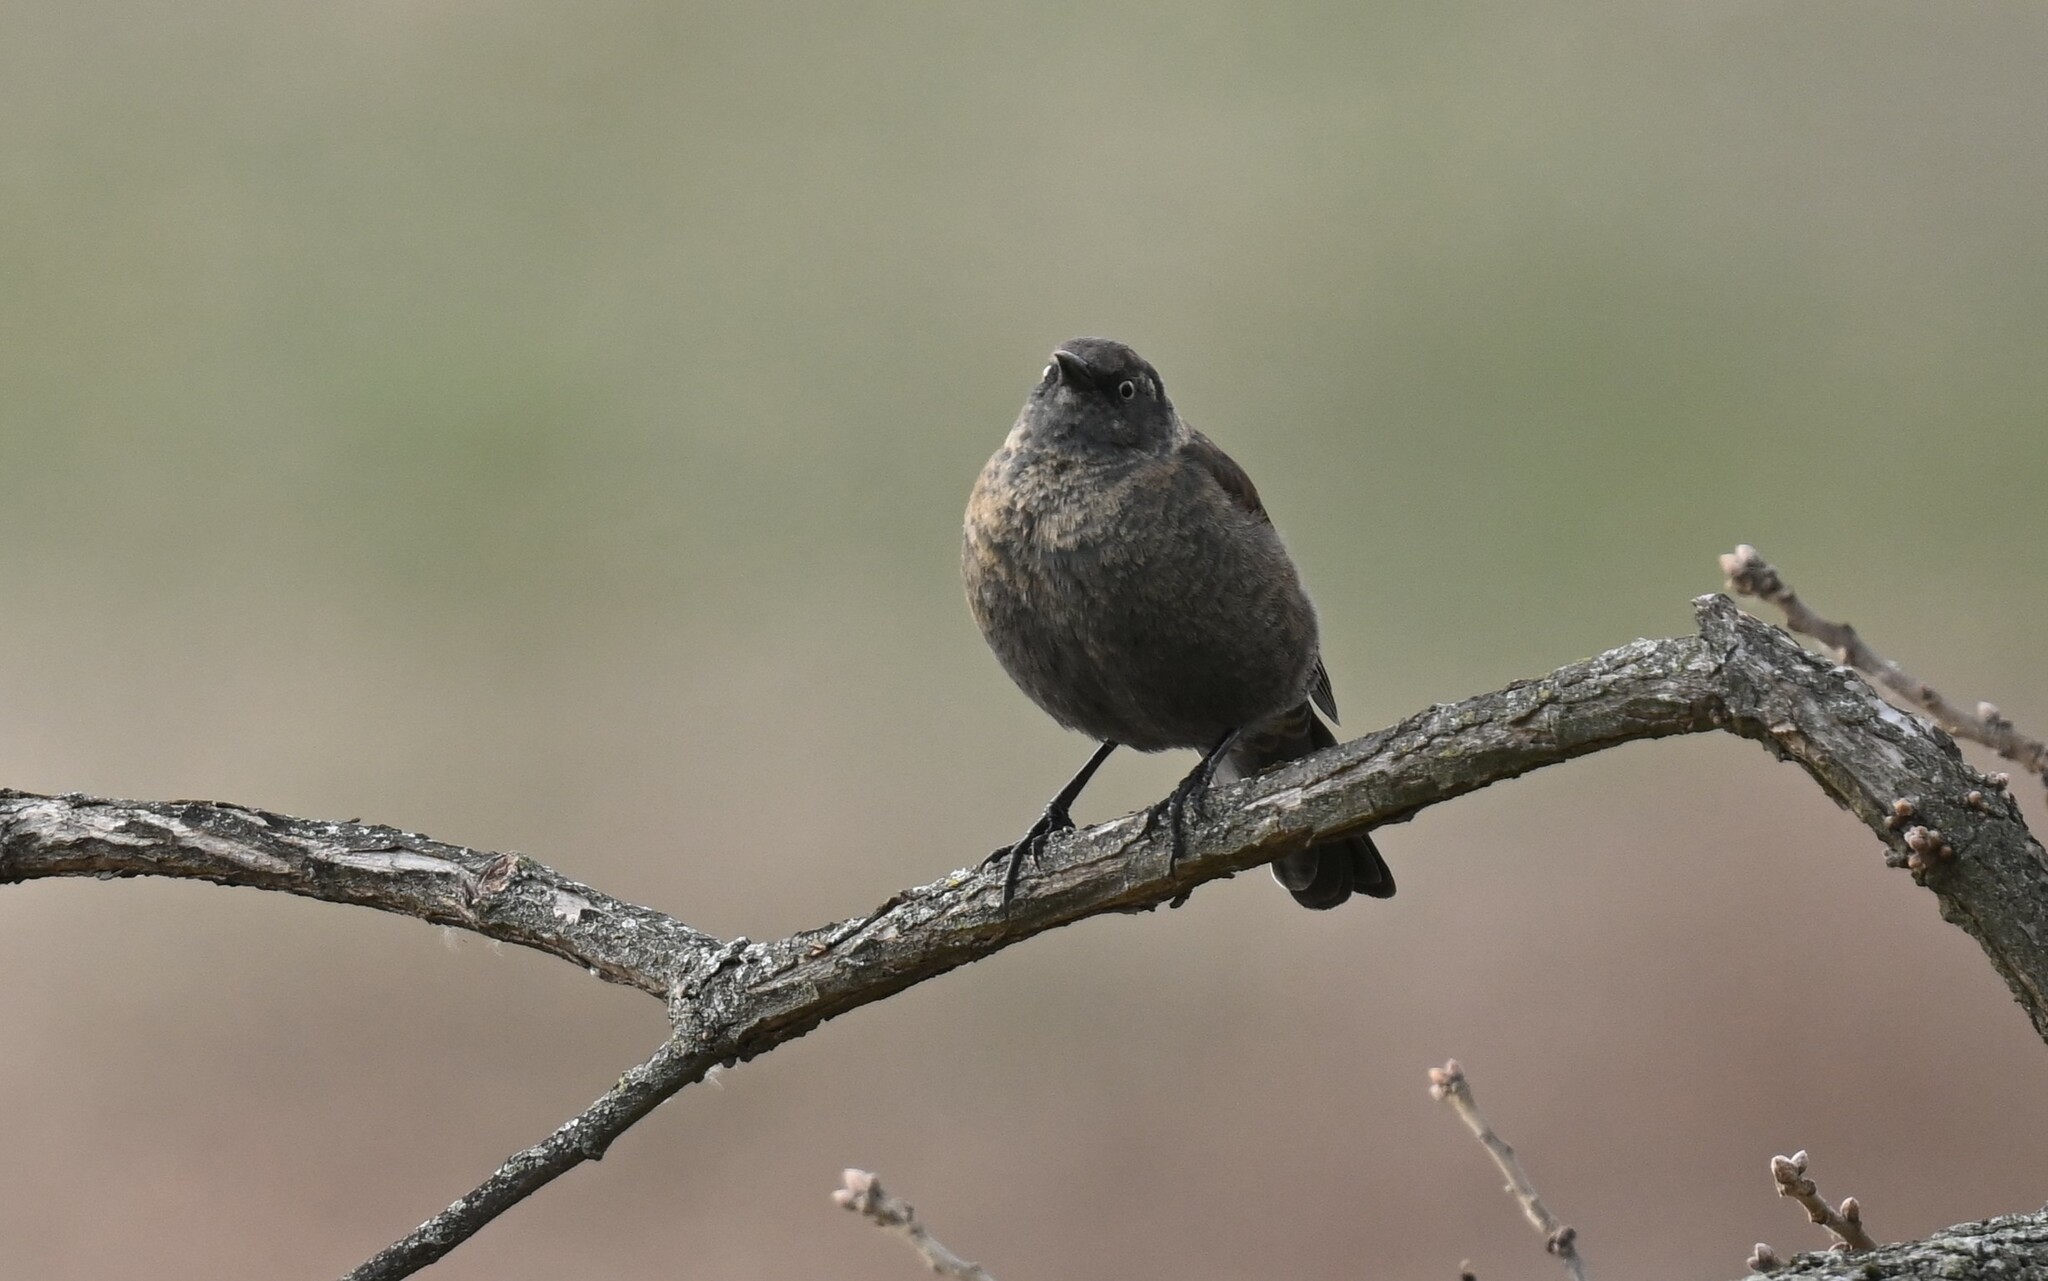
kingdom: Animalia
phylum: Chordata
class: Aves
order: Passeriformes
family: Icteridae
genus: Euphagus
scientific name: Euphagus carolinus
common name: Rusty blackbird
